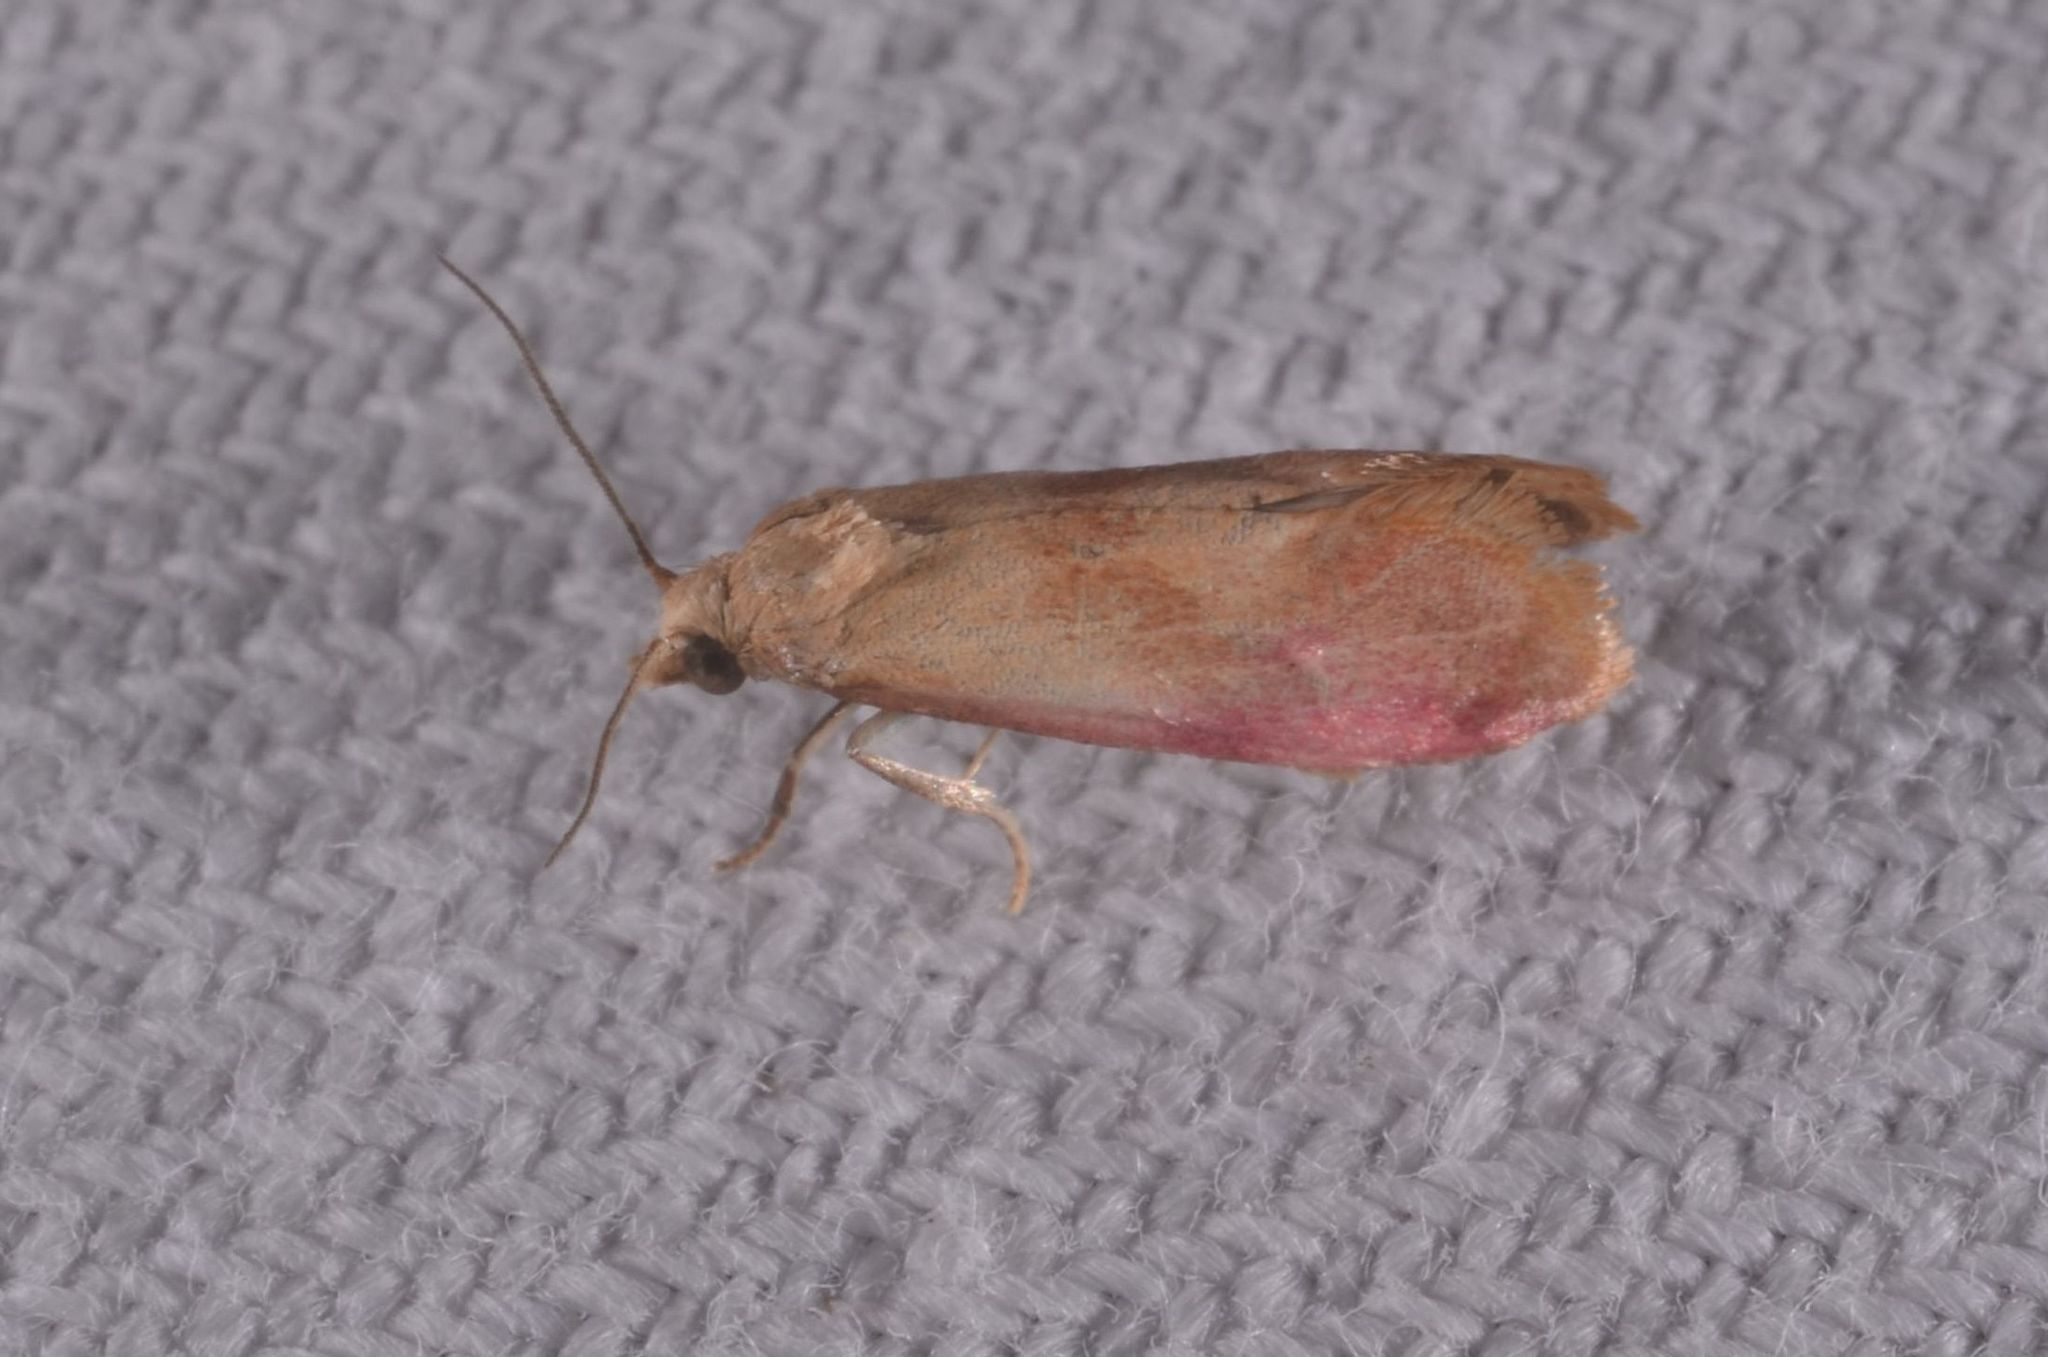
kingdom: Animalia
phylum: Arthropoda
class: Insecta
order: Lepidoptera
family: Tortricidae
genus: Cochylis
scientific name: Cochylis flaviciliana
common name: Gold-fringed conch
